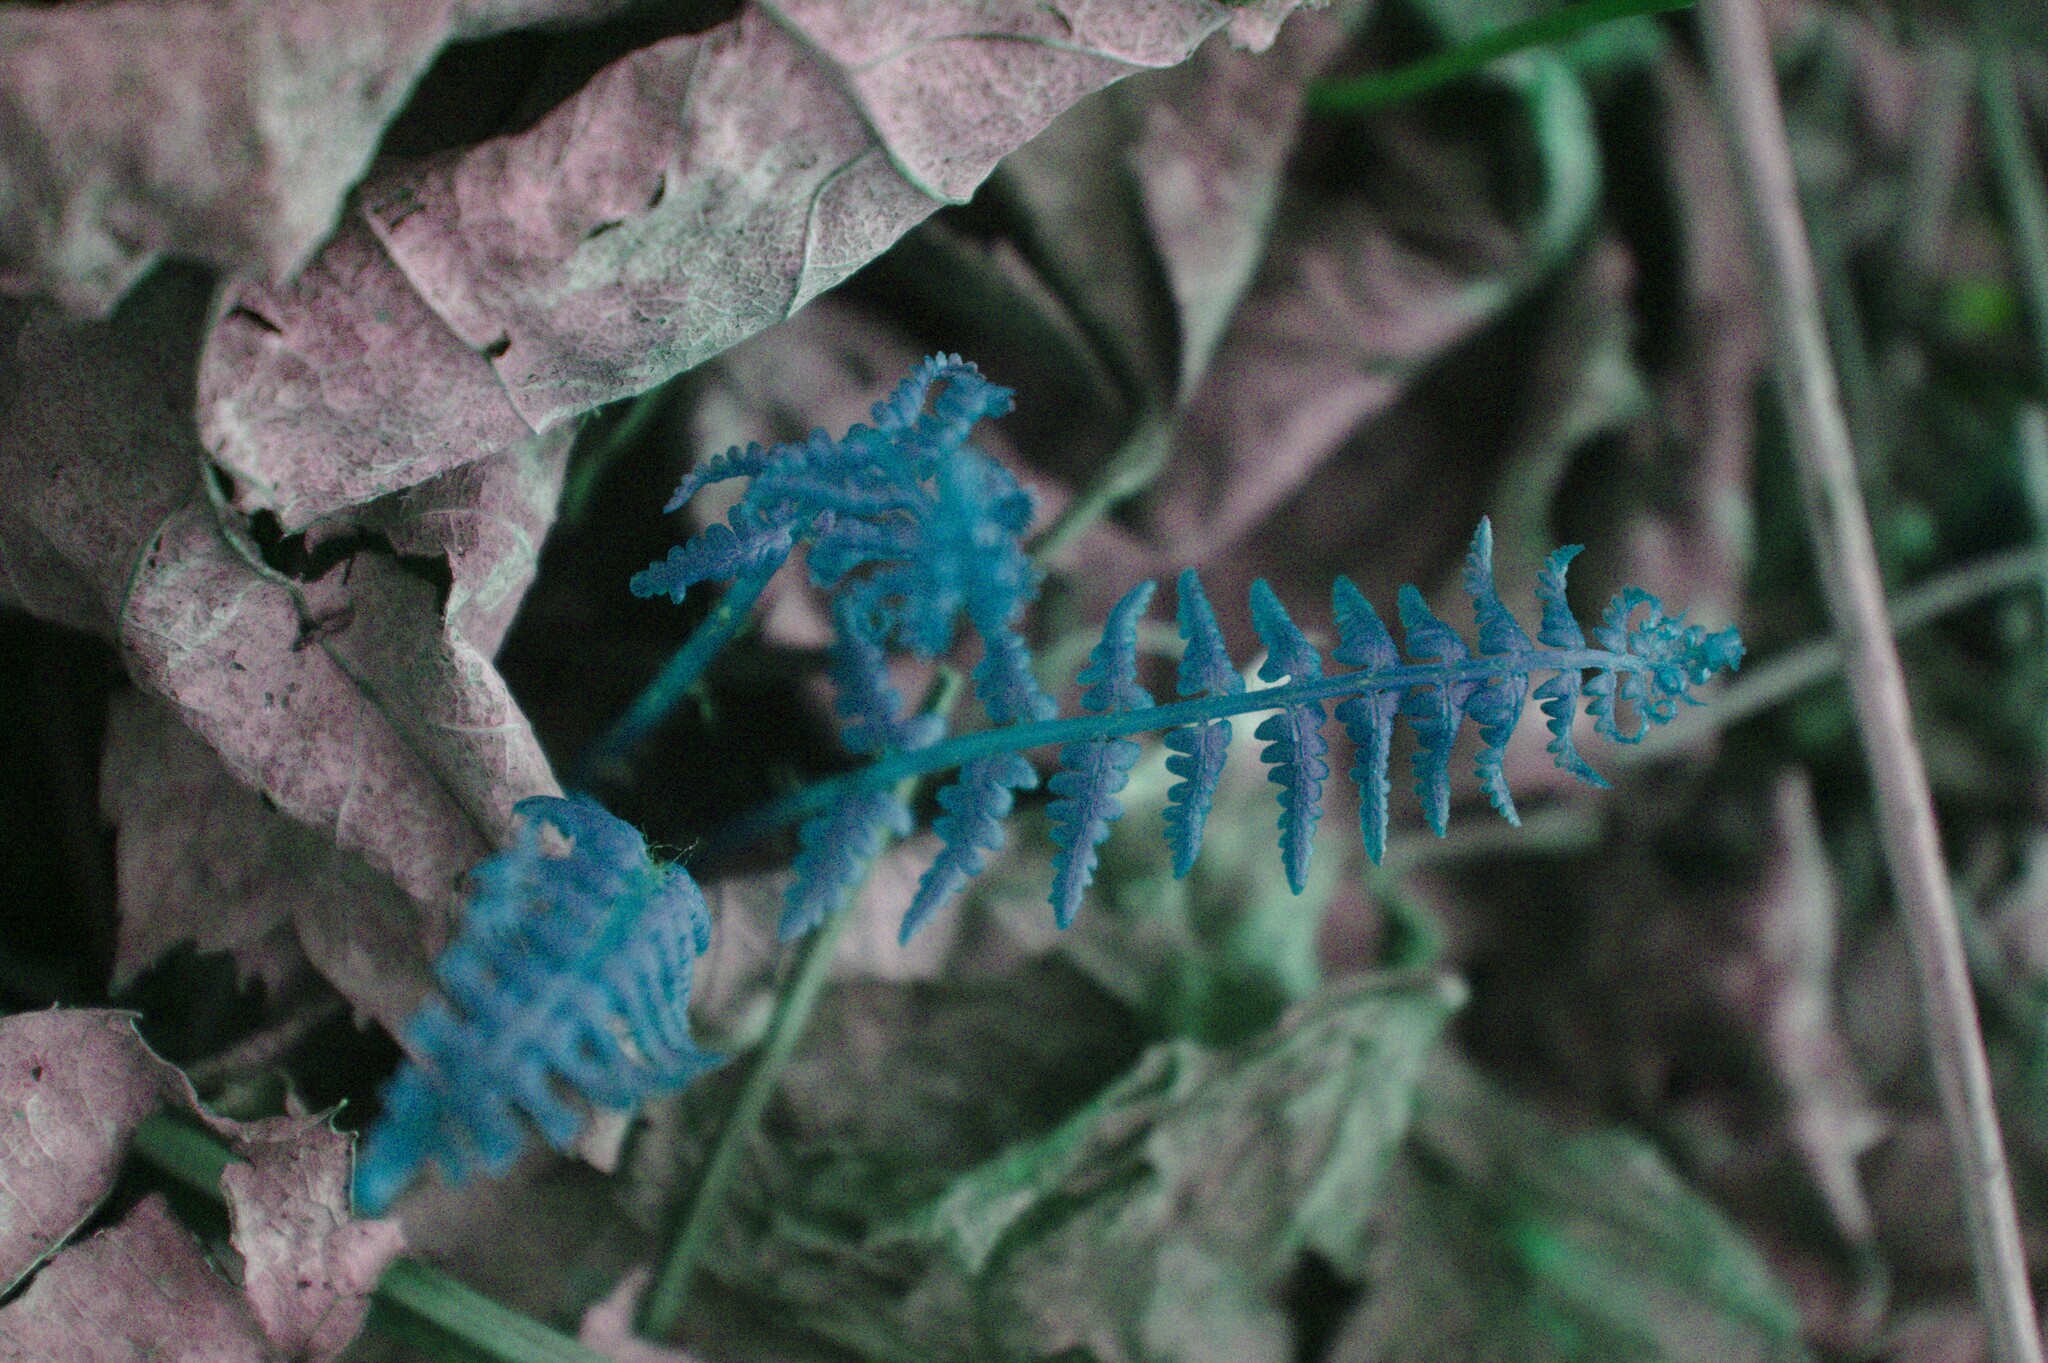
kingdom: Plantae
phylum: Tracheophyta
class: Polypodiopsida
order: Polypodiales
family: Athyriaceae
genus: Athyrium
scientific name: Athyrium angustum
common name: Northern lady fern
